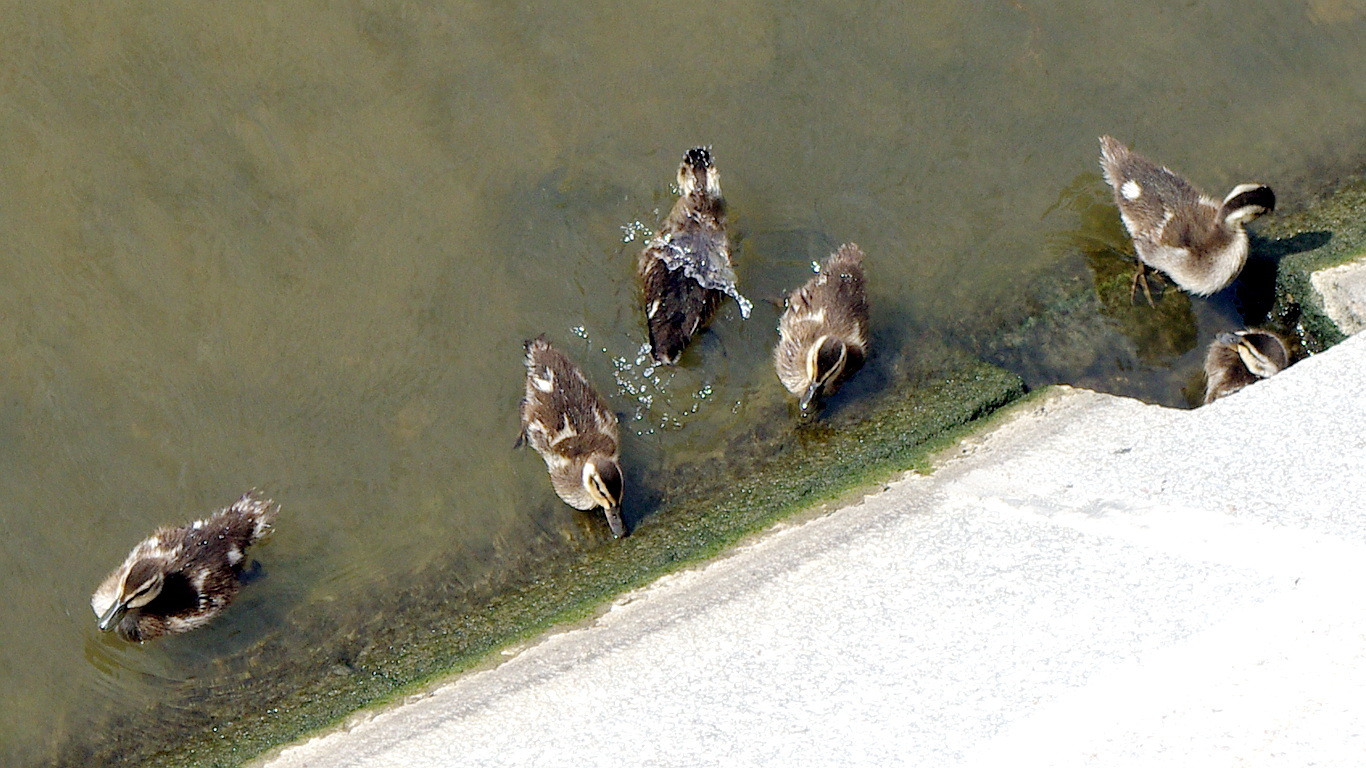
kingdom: Animalia
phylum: Chordata
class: Aves
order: Anseriformes
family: Anatidae
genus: Anas
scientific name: Anas platyrhynchos
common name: Mallard
